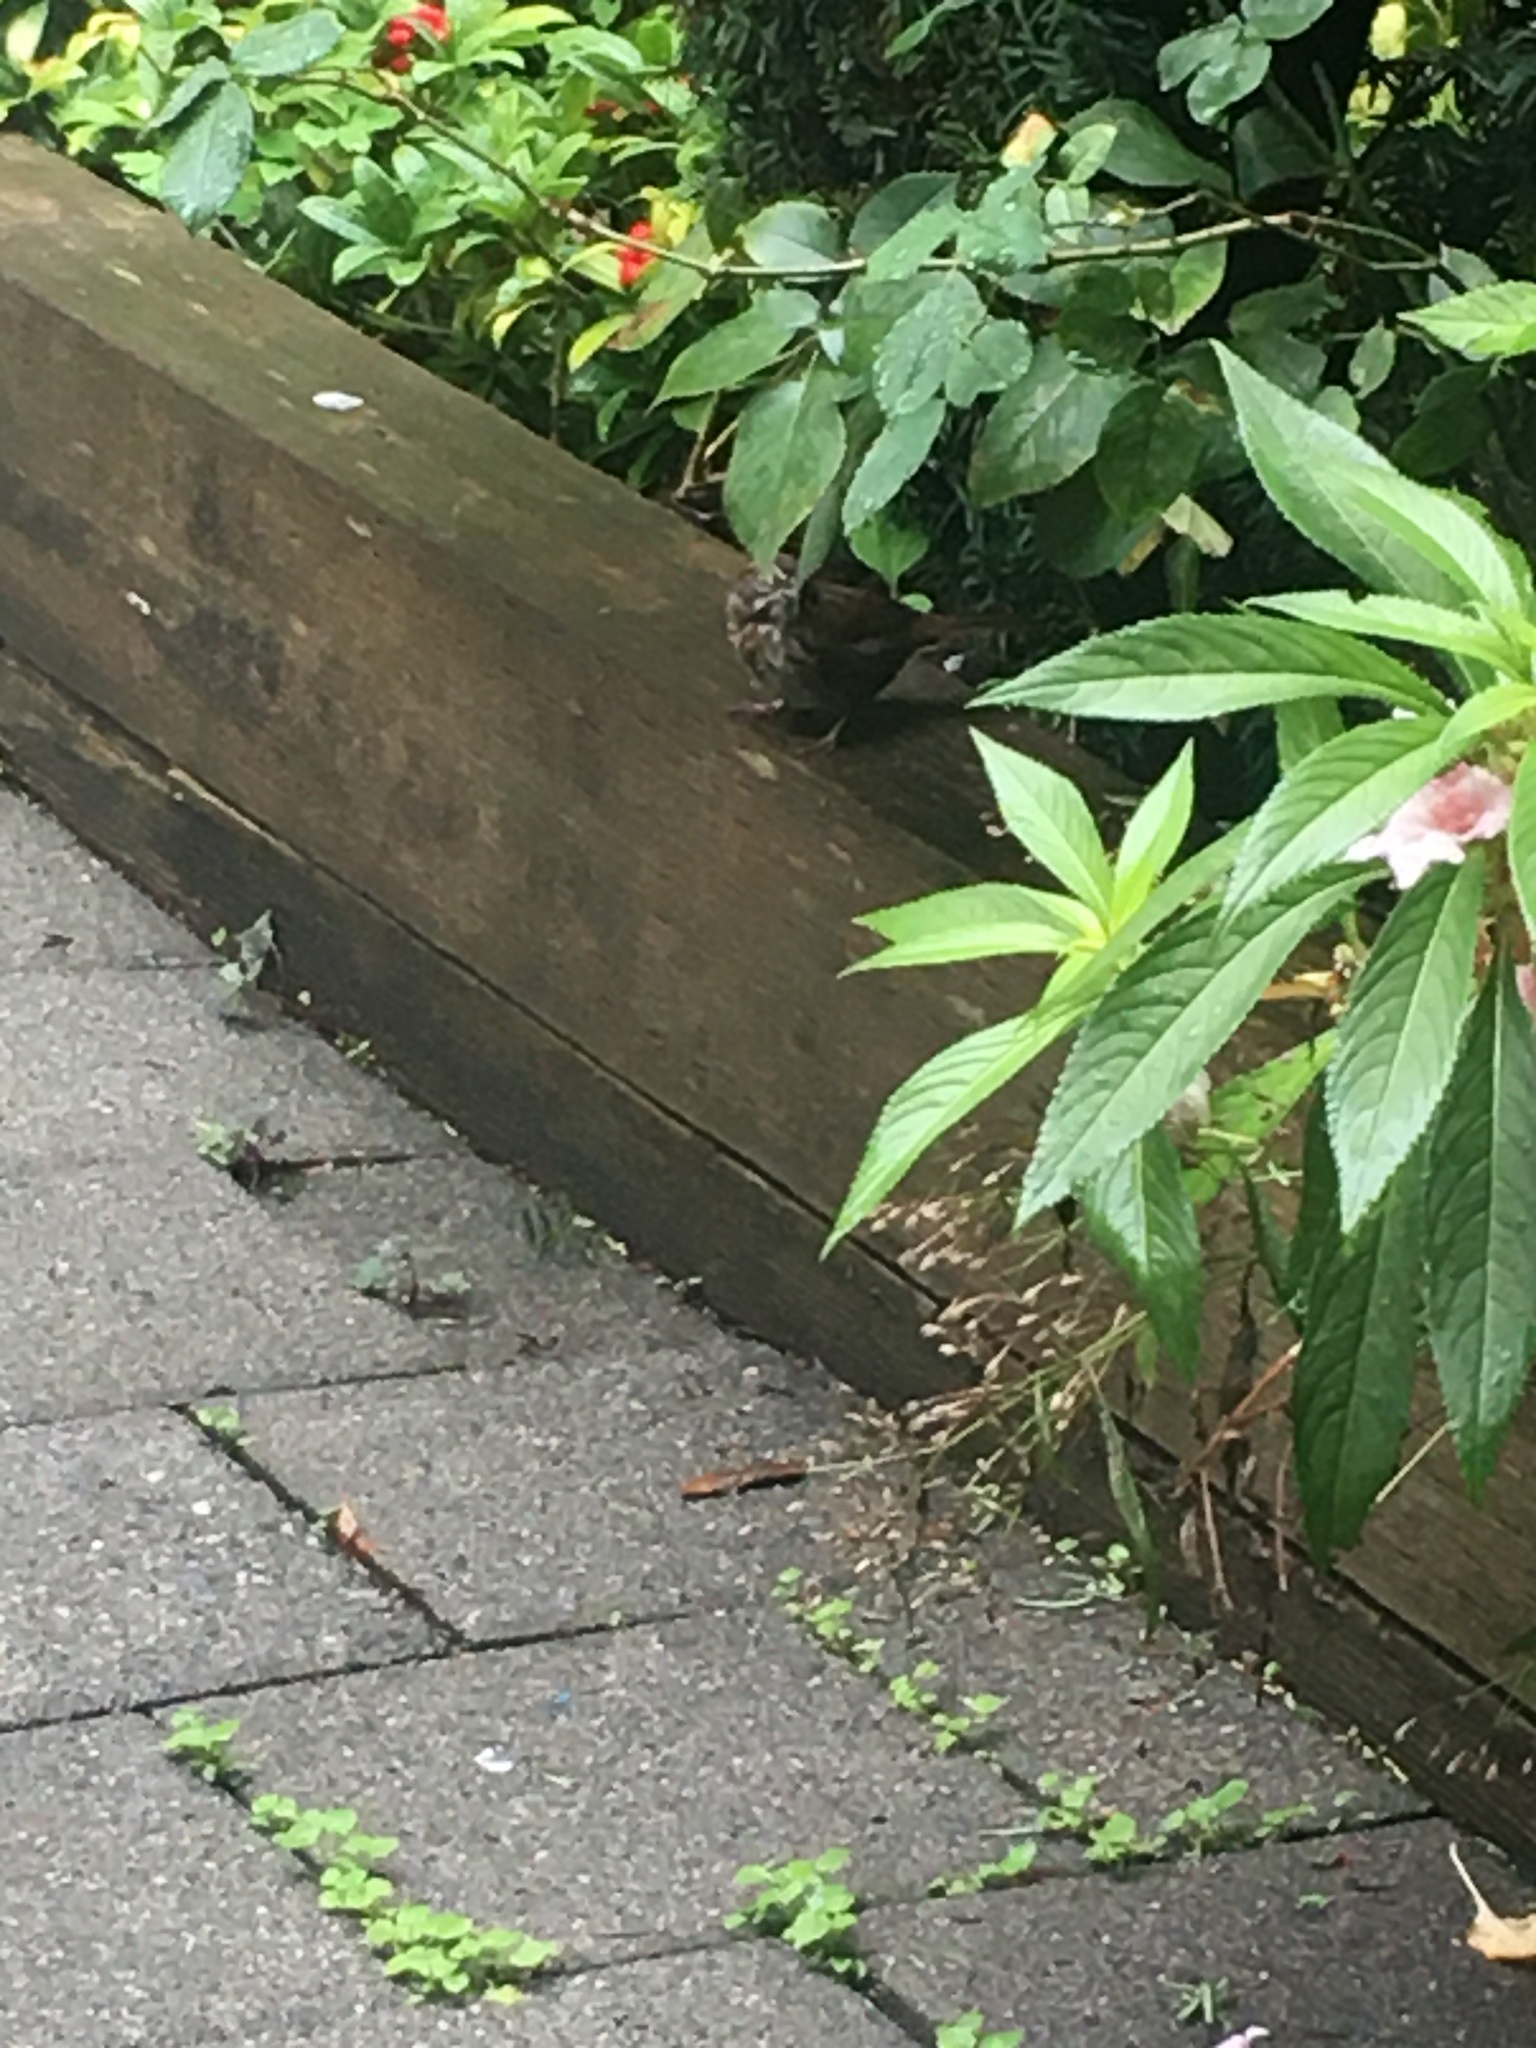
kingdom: Animalia
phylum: Chordata
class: Aves
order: Passeriformes
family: Passerellidae
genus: Melospiza
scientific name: Melospiza melodia
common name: Song sparrow
